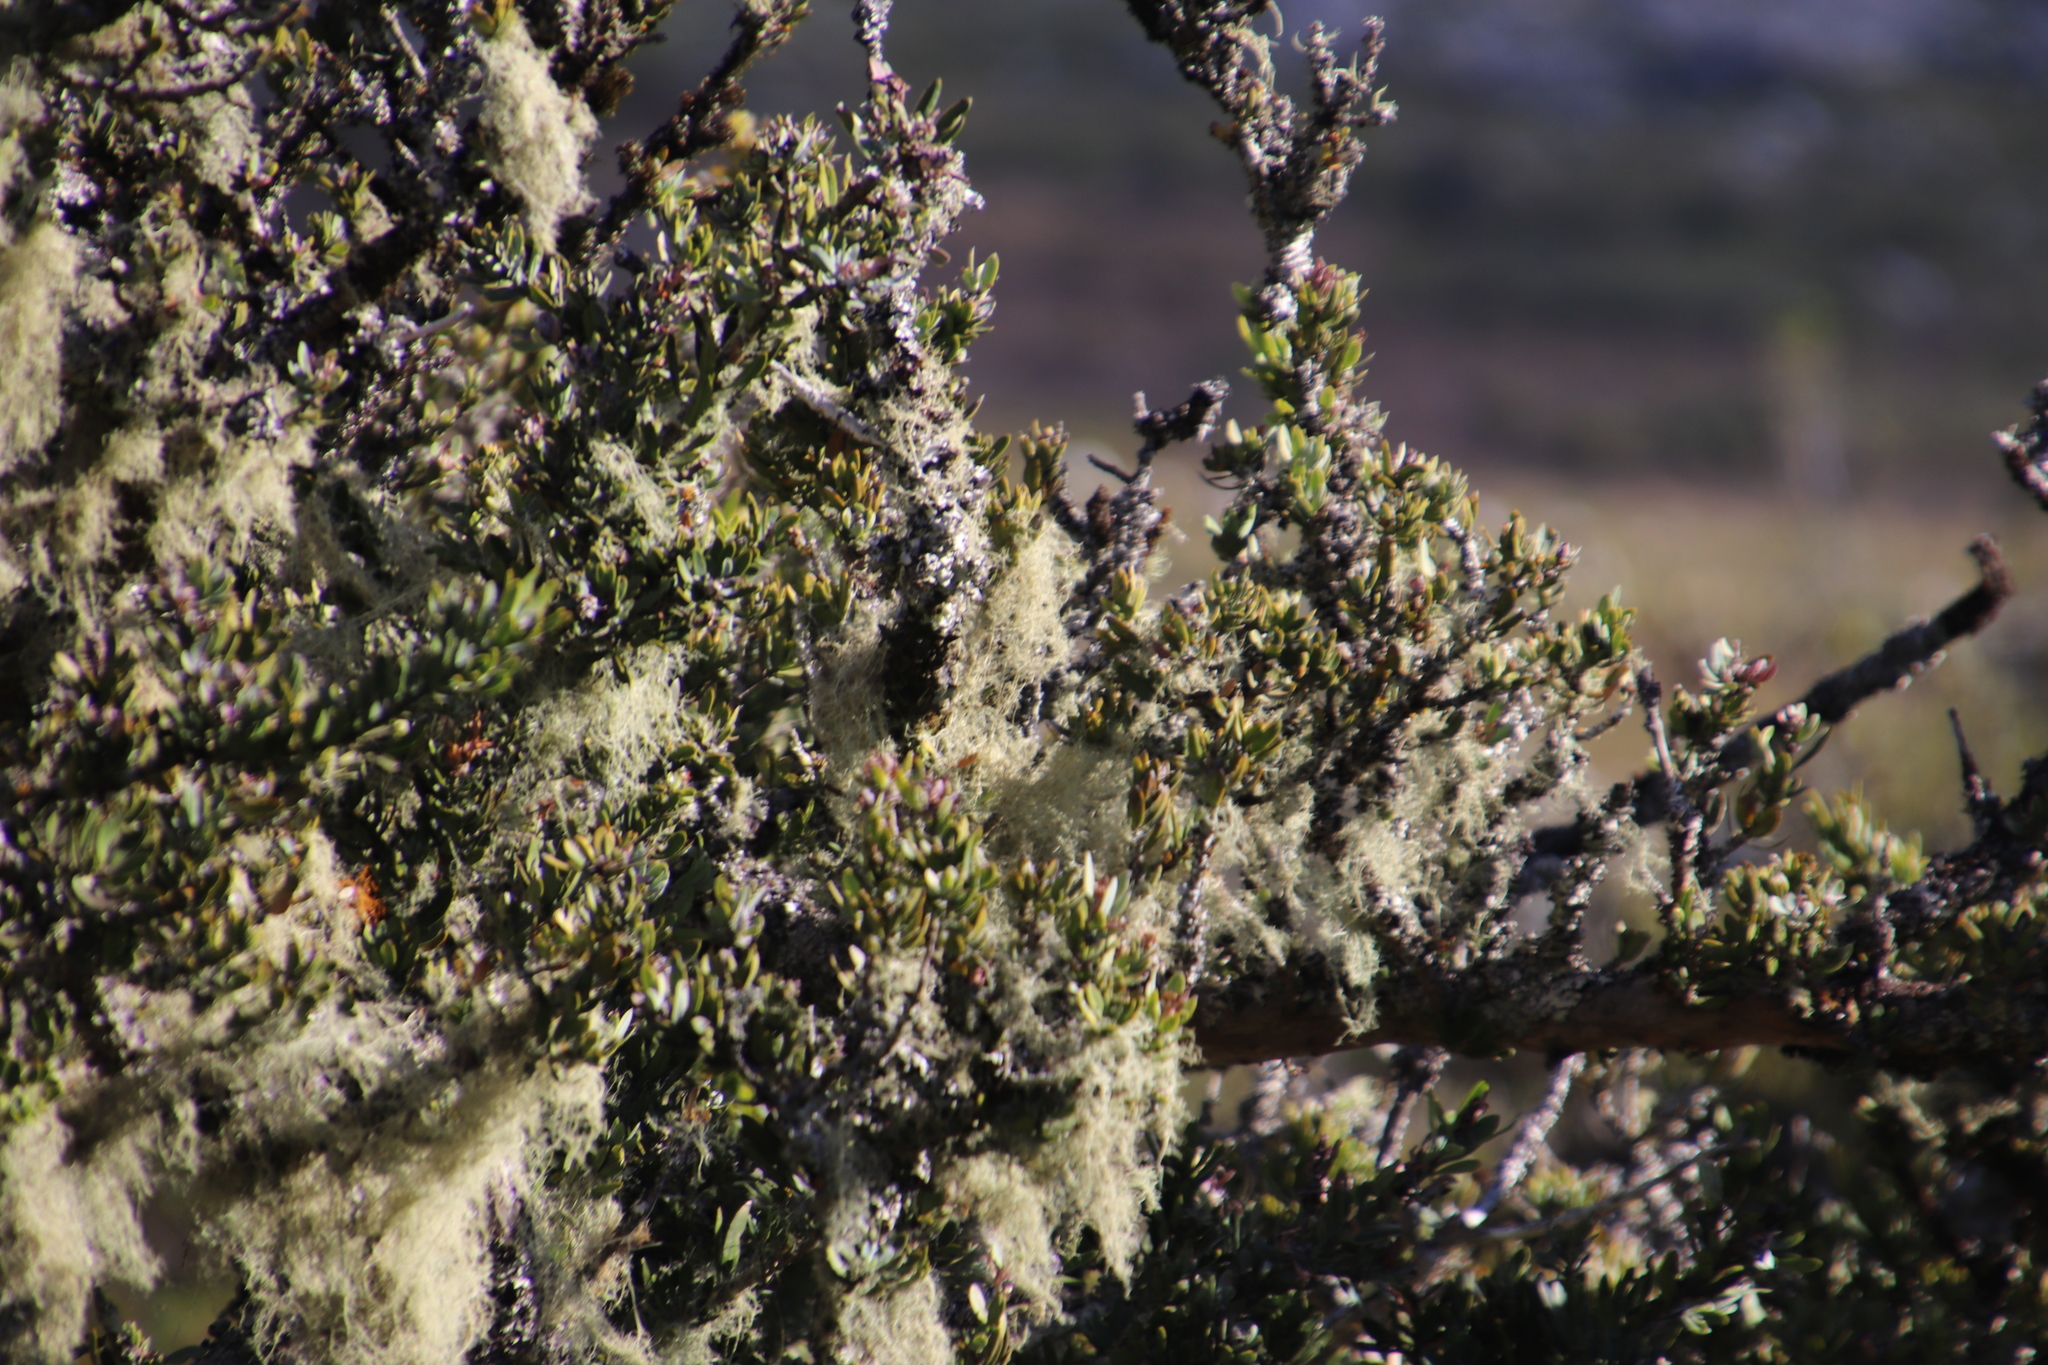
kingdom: Plantae
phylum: Tracheophyta
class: Pinopsida
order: Pinales
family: Podocarpaceae
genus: Podocarpus
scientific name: Podocarpus latifolius
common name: True yellowwood
